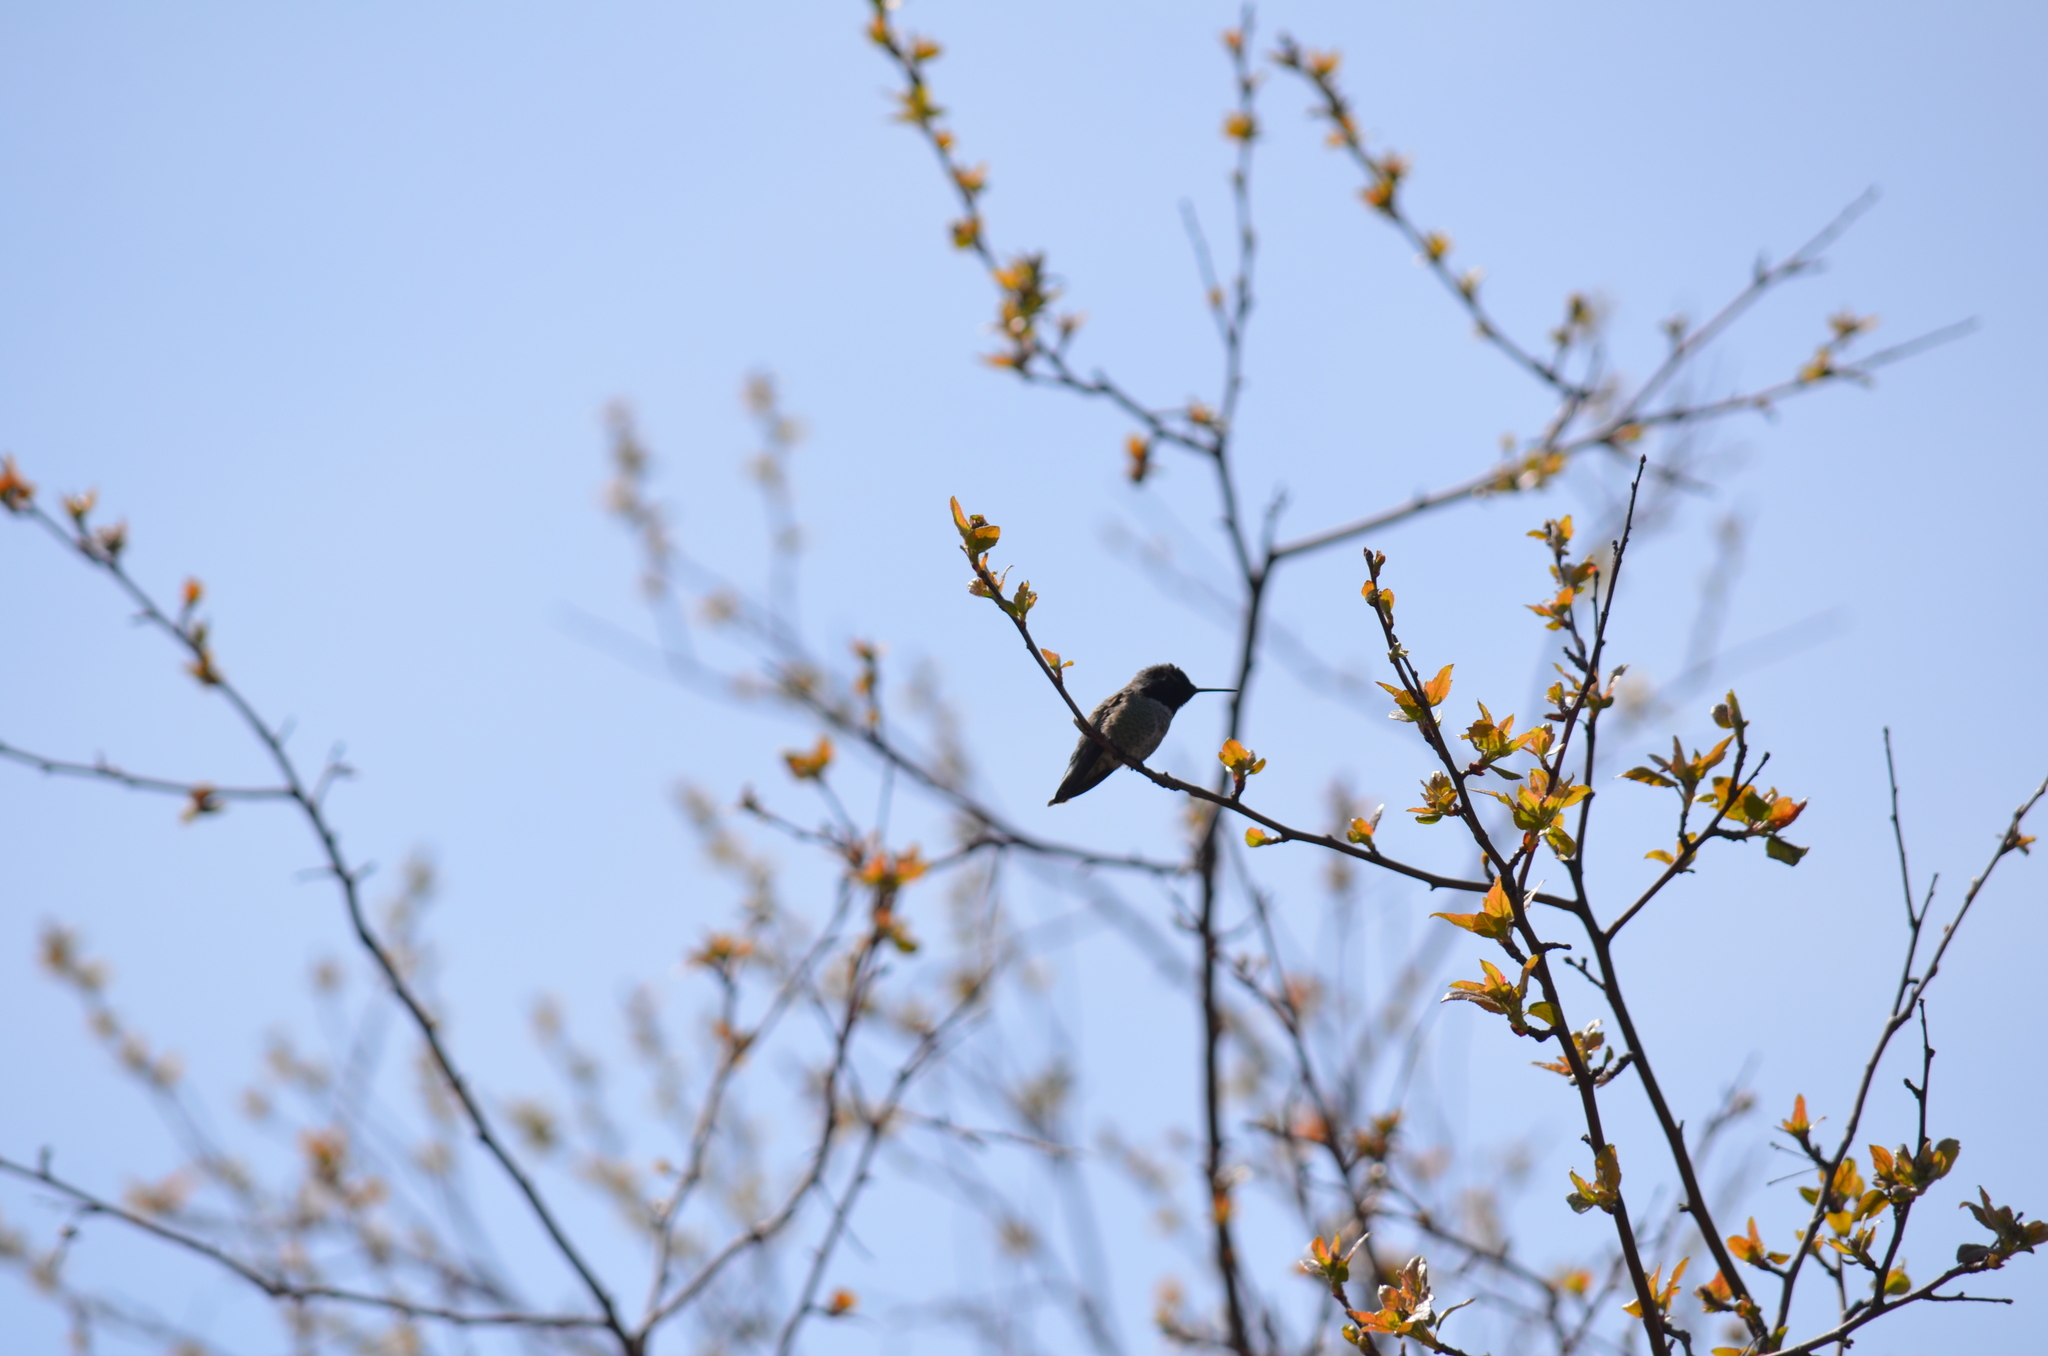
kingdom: Animalia
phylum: Chordata
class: Aves
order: Apodiformes
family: Trochilidae
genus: Calypte
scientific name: Calypte anna
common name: Anna's hummingbird
